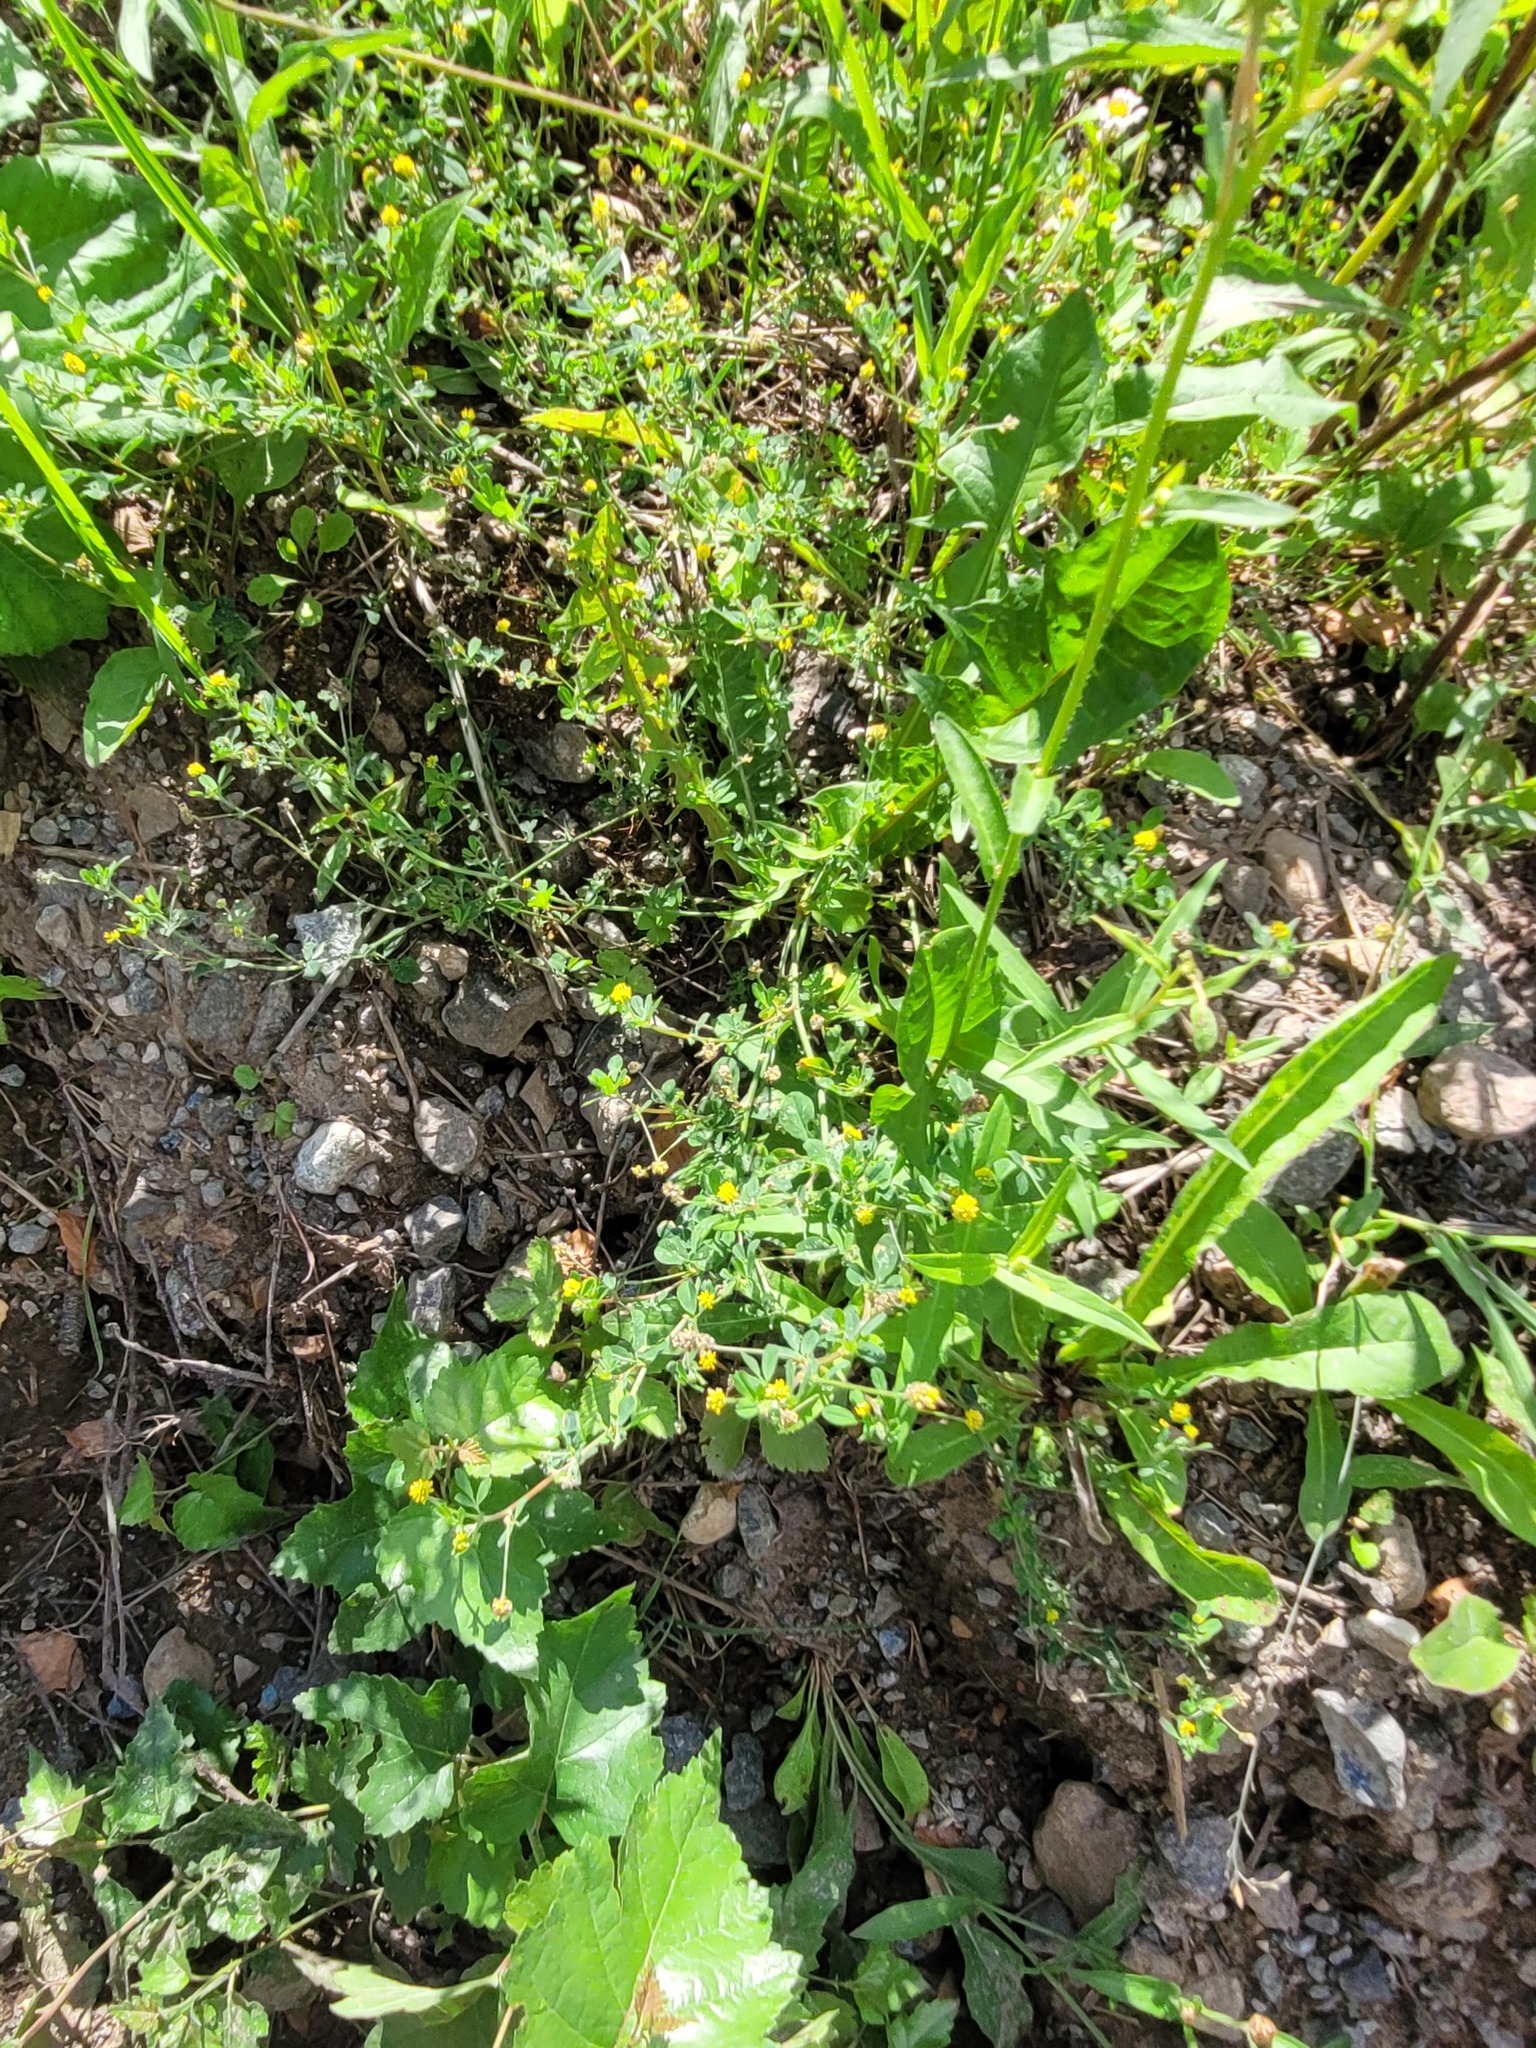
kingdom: Plantae
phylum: Tracheophyta
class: Magnoliopsida
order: Fabales
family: Fabaceae
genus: Medicago
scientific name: Medicago lupulina
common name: Black medick
